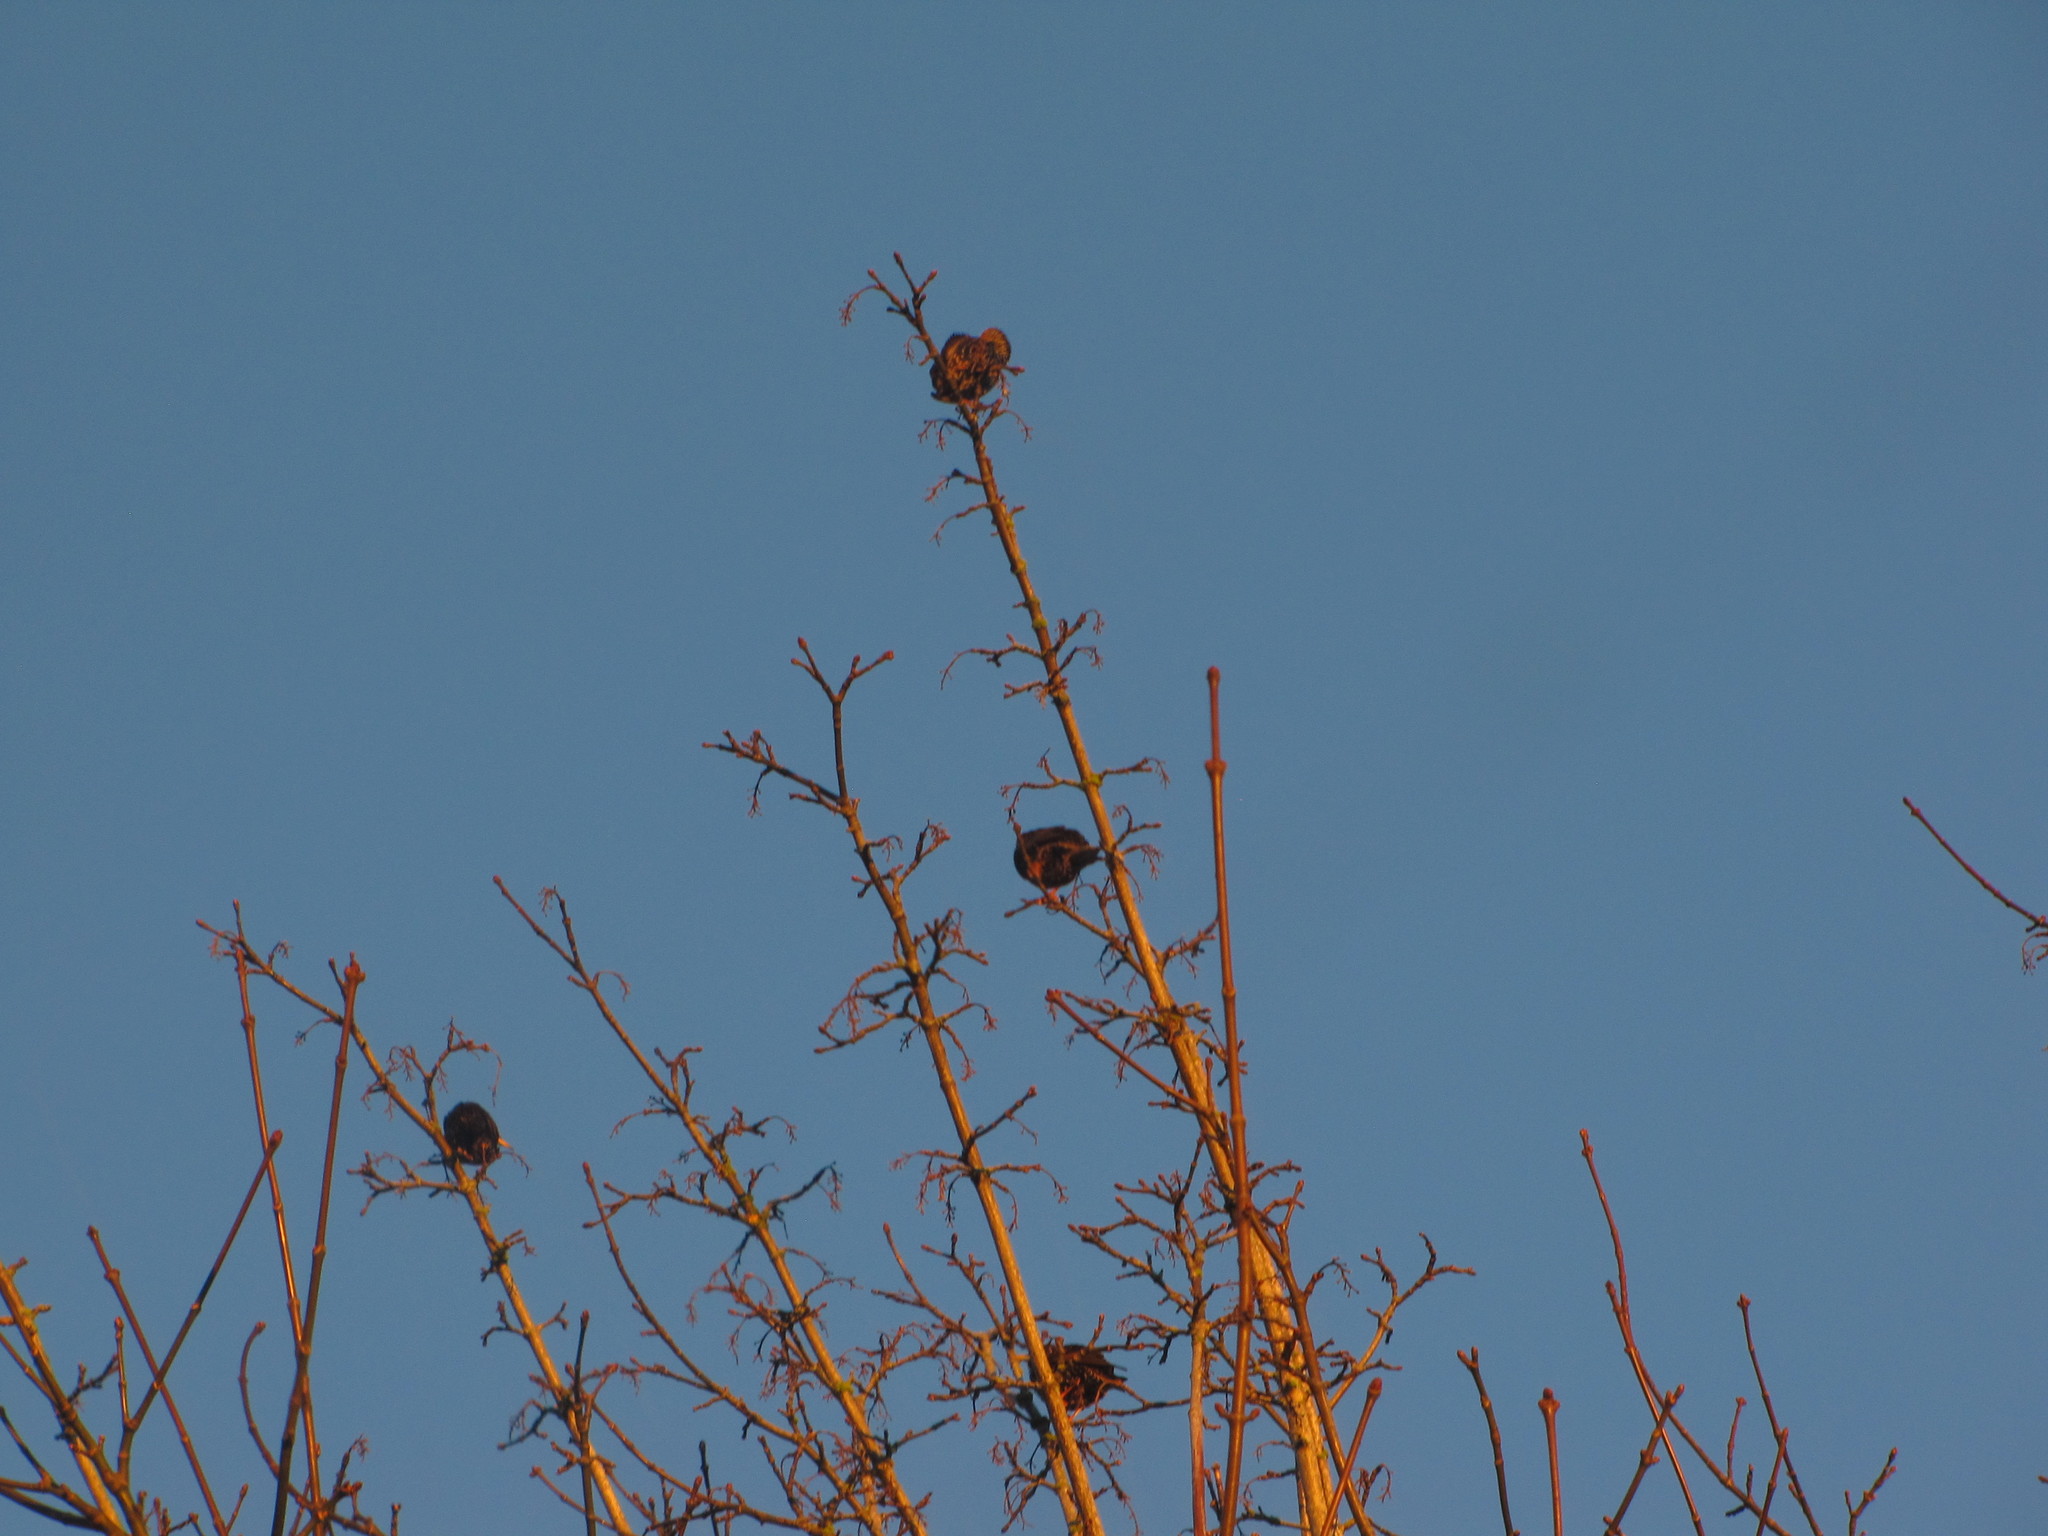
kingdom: Animalia
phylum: Chordata
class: Aves
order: Passeriformes
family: Sturnidae
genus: Sturnus
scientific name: Sturnus vulgaris
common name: Common starling
